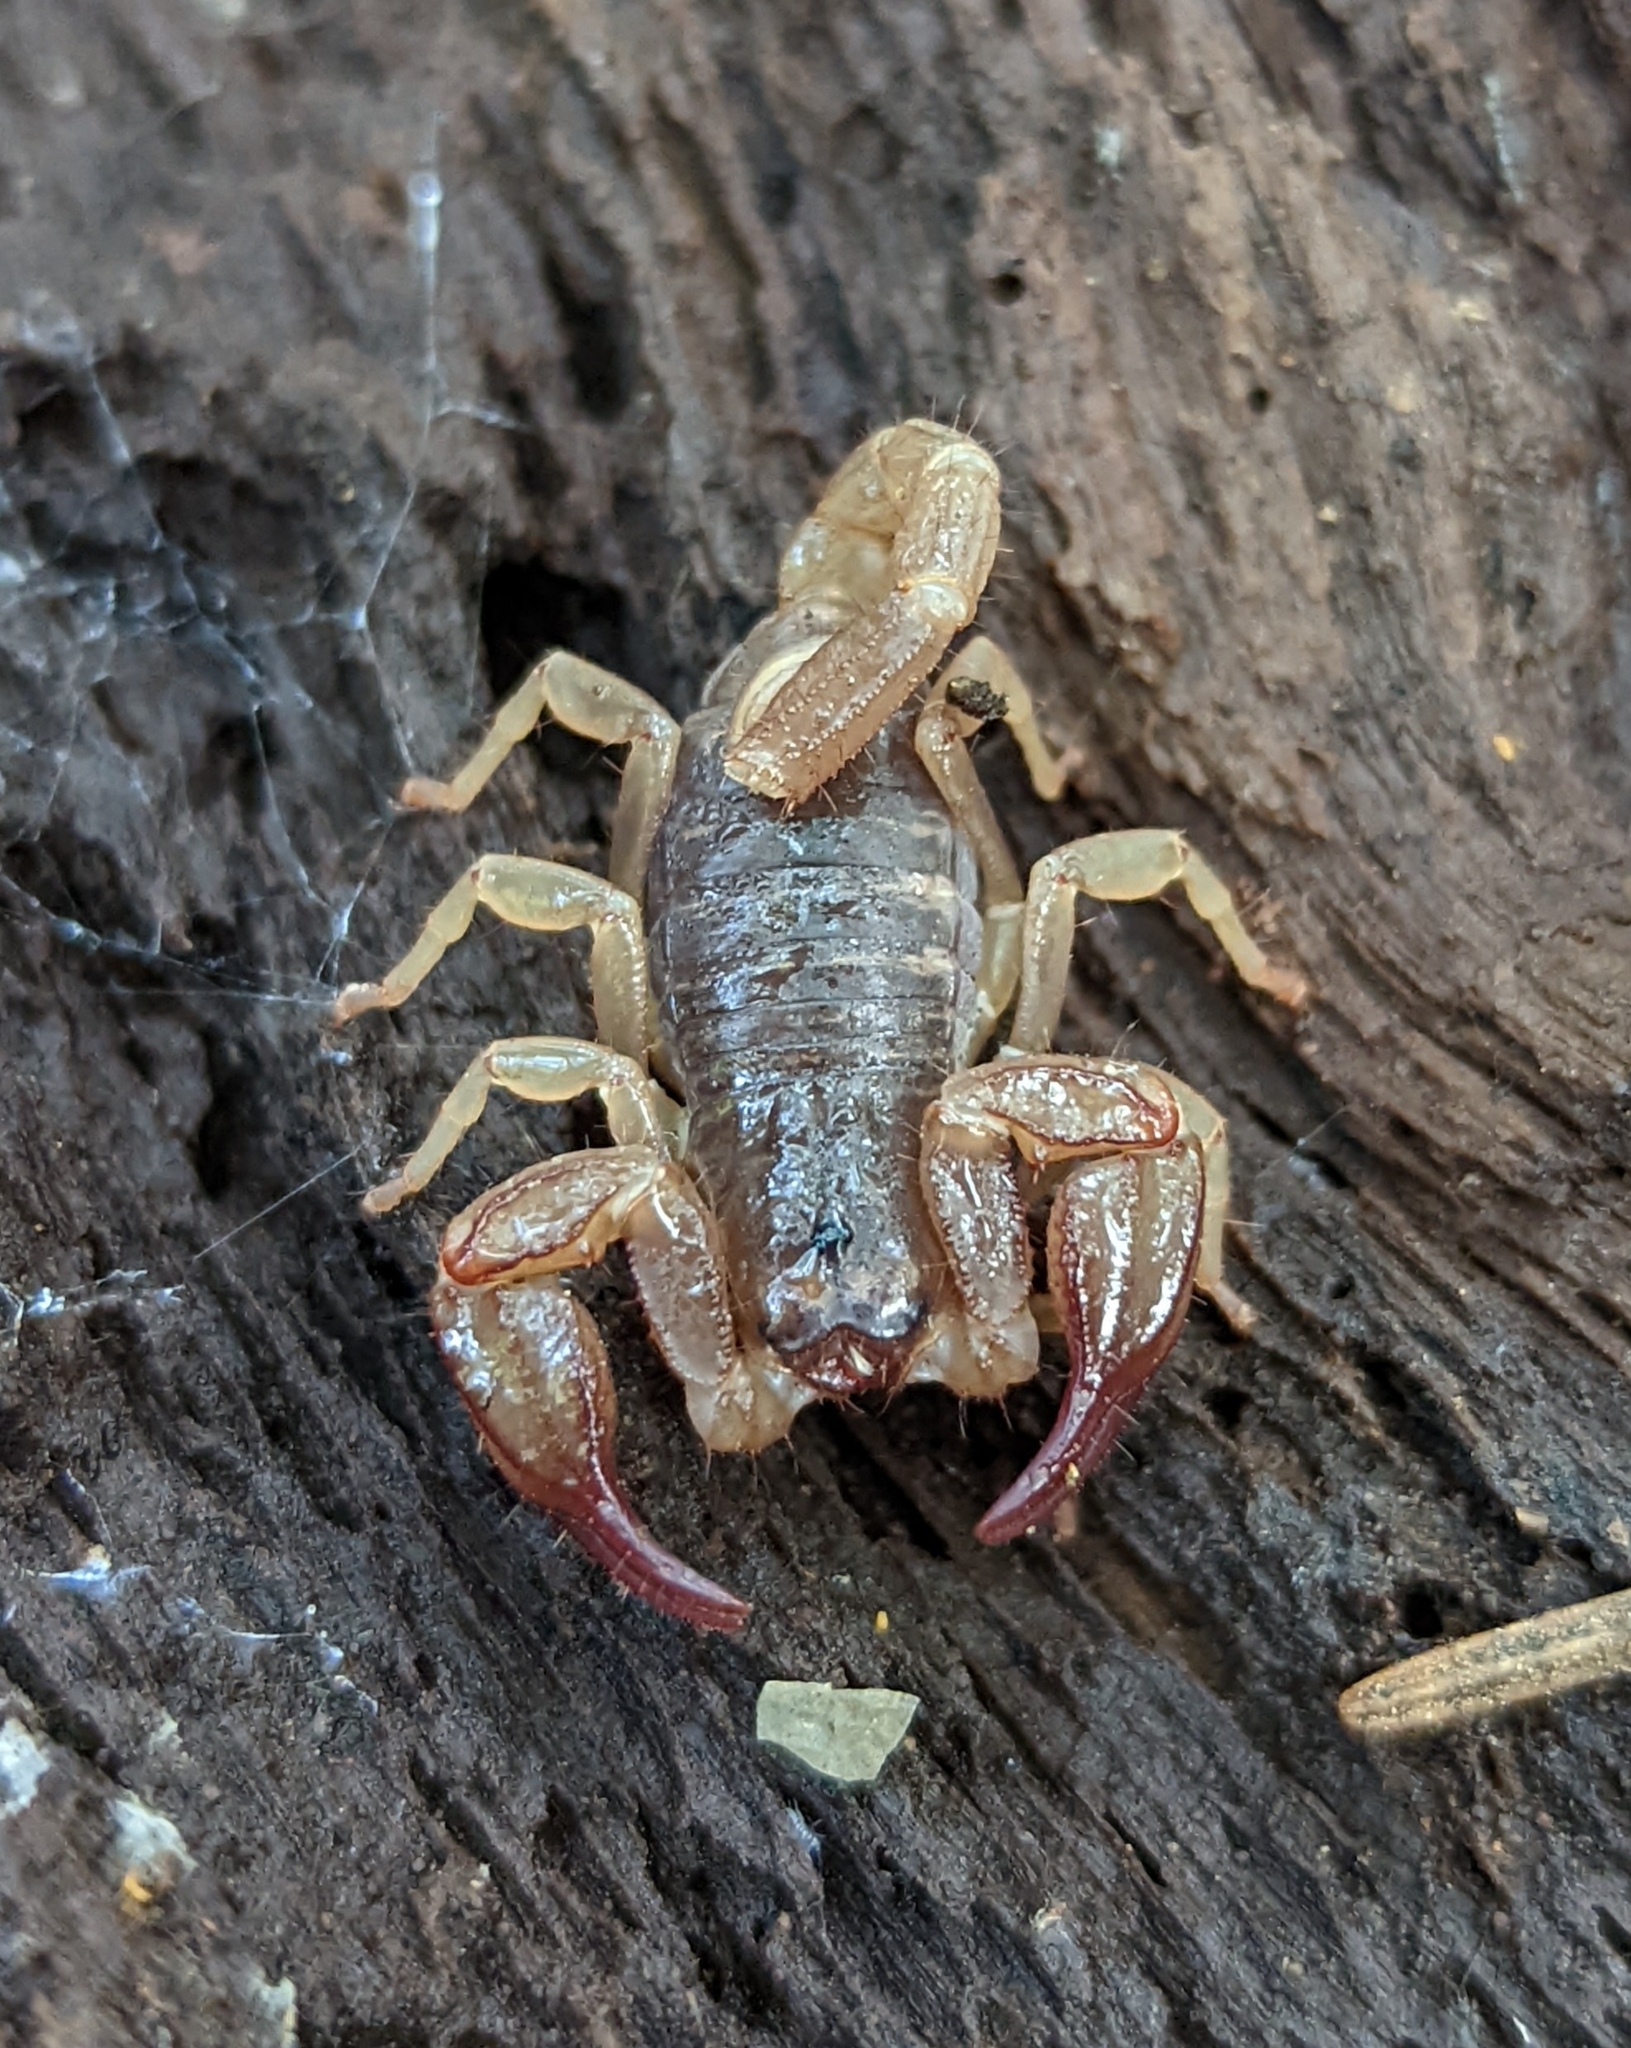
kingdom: Animalia
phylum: Arthropoda
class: Arachnida
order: Scorpiones
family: Chactidae
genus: Uroctonus
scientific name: Uroctonus mordax
